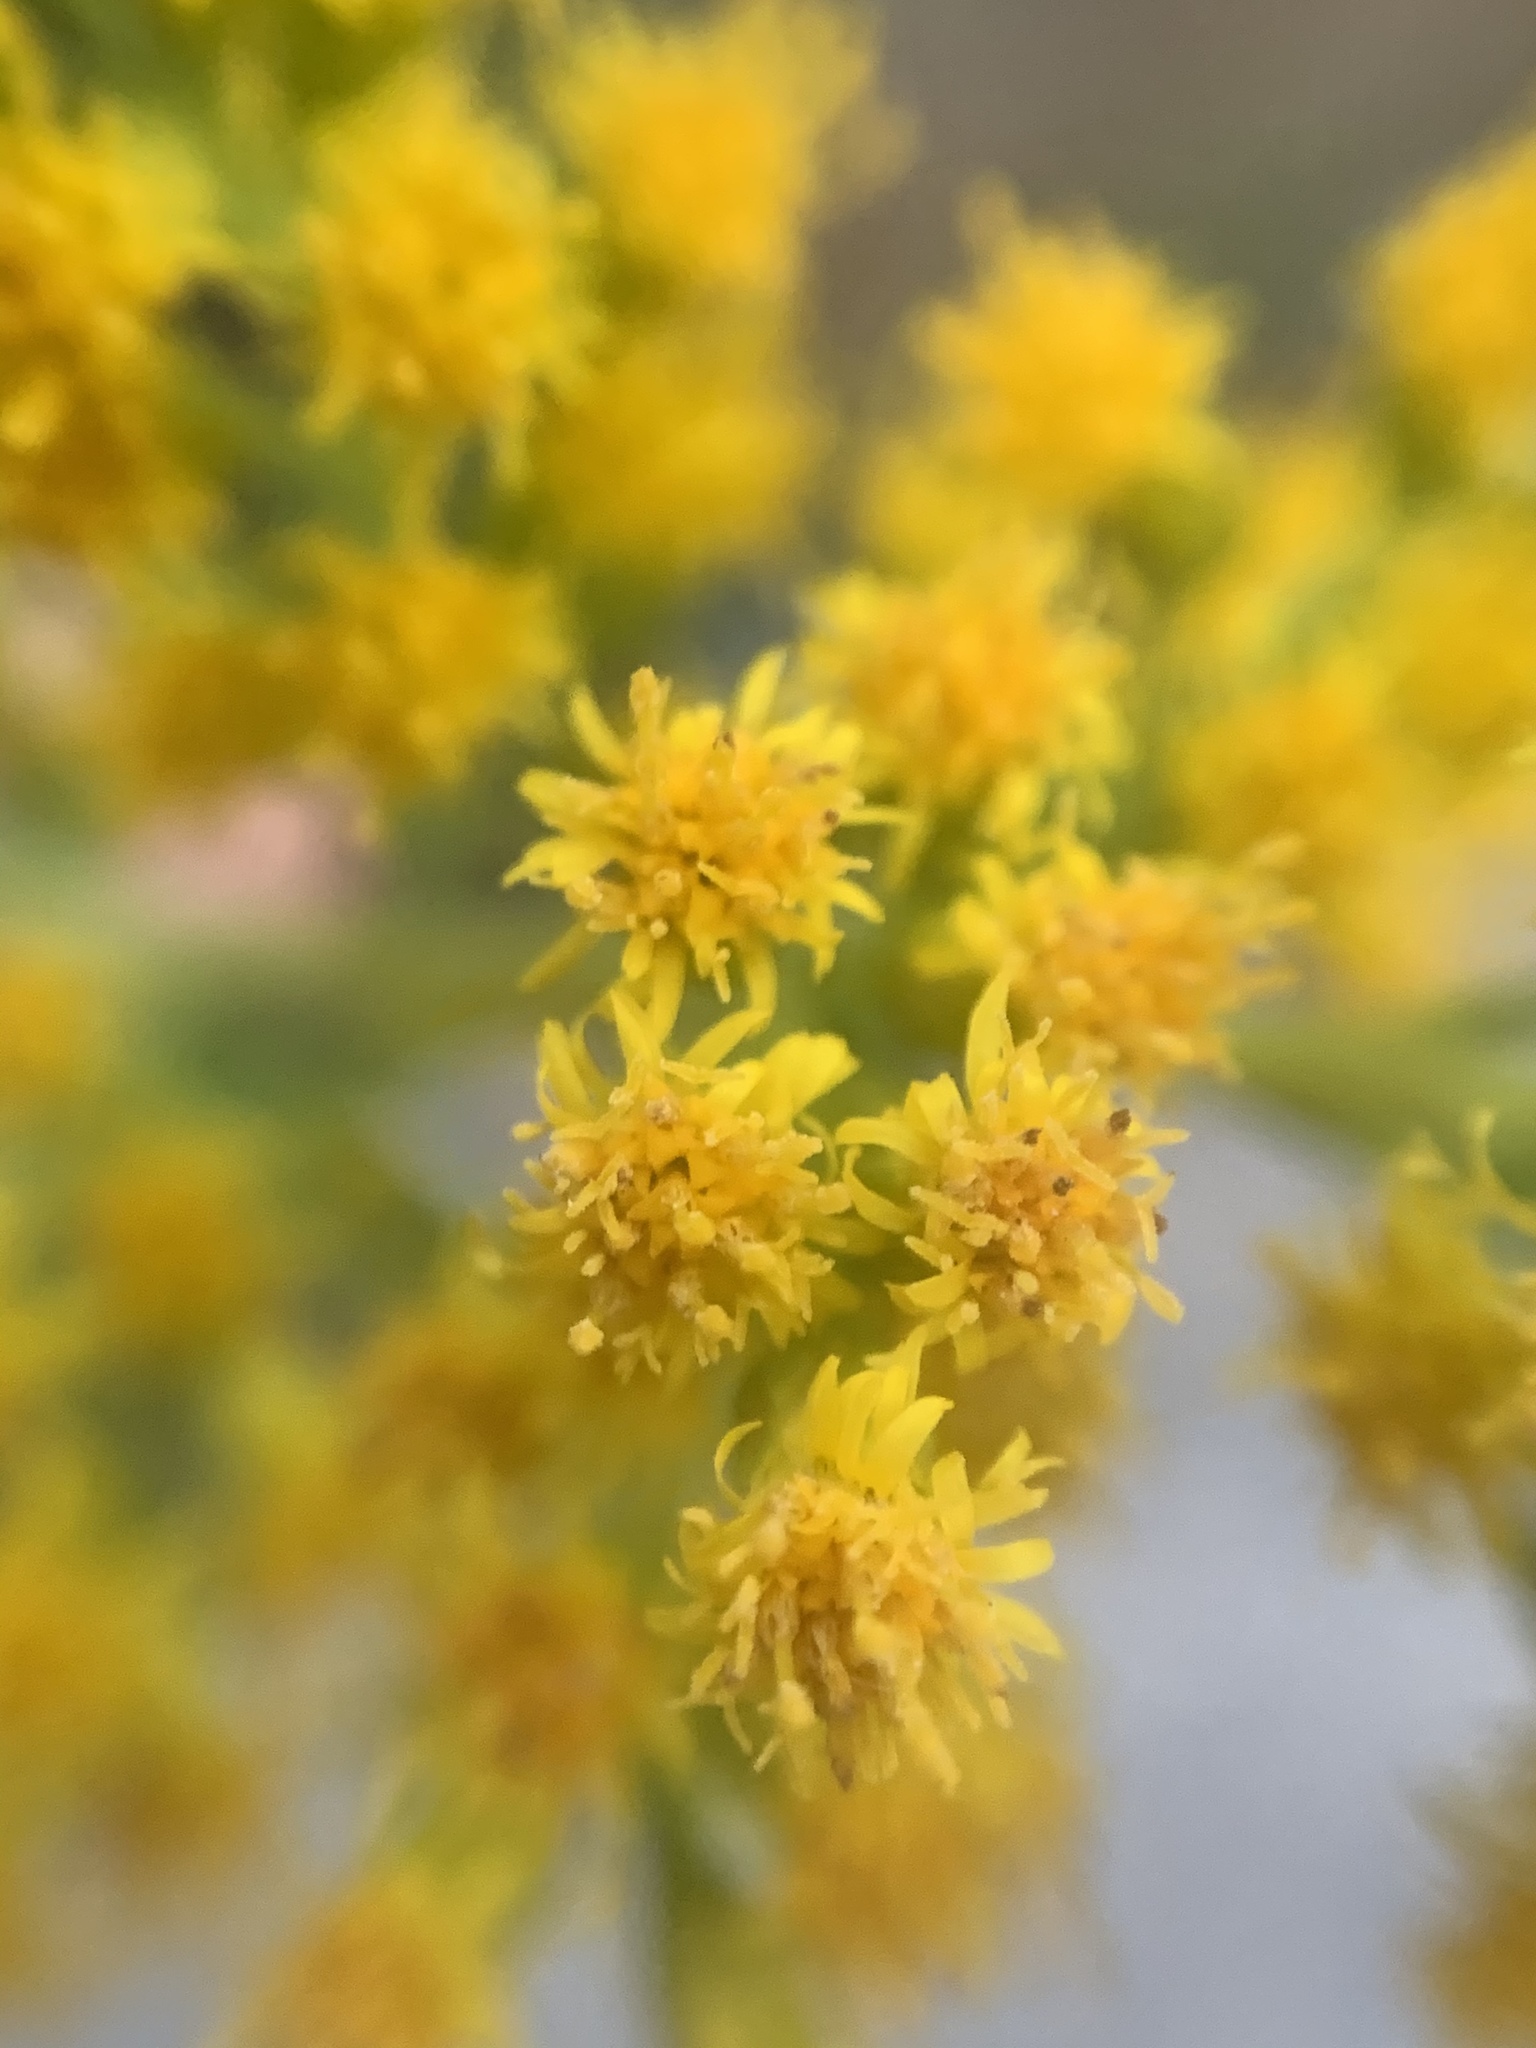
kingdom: Plantae
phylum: Tracheophyta
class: Magnoliopsida
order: Asterales
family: Asteraceae
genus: Solidago
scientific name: Solidago chilensis
